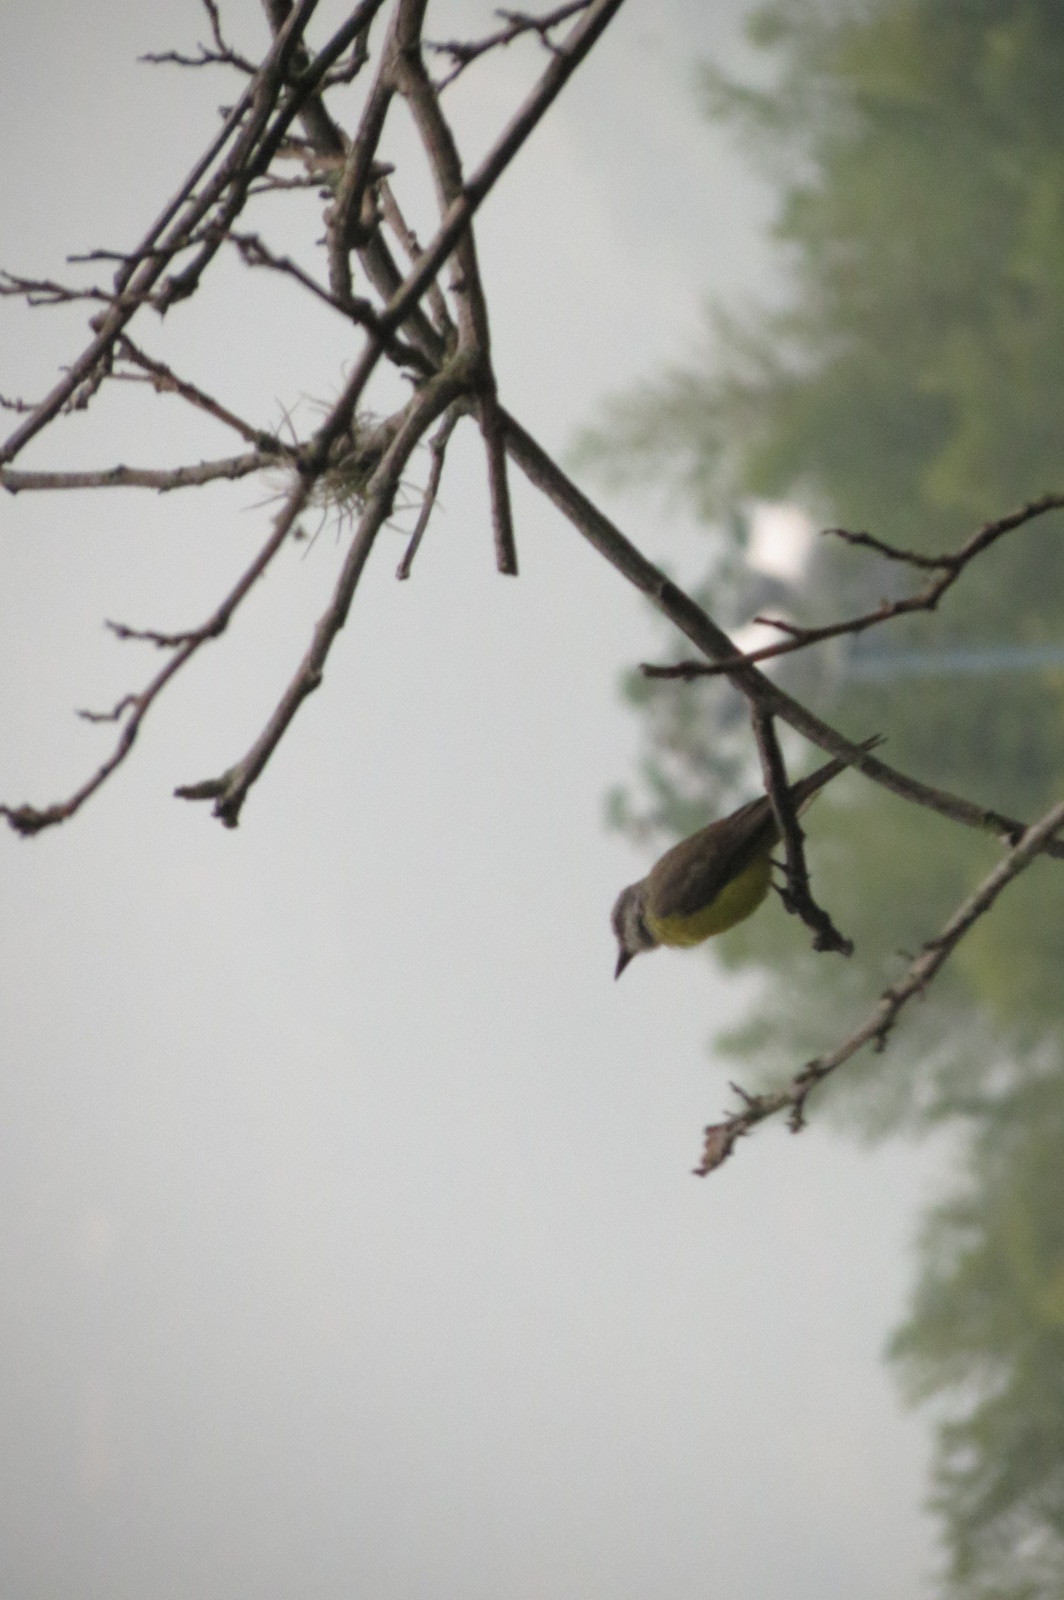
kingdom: Animalia
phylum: Chordata
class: Aves
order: Passeriformes
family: Tyrannidae
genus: Tyrannus
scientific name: Tyrannus melancholicus
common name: Tropical kingbird
